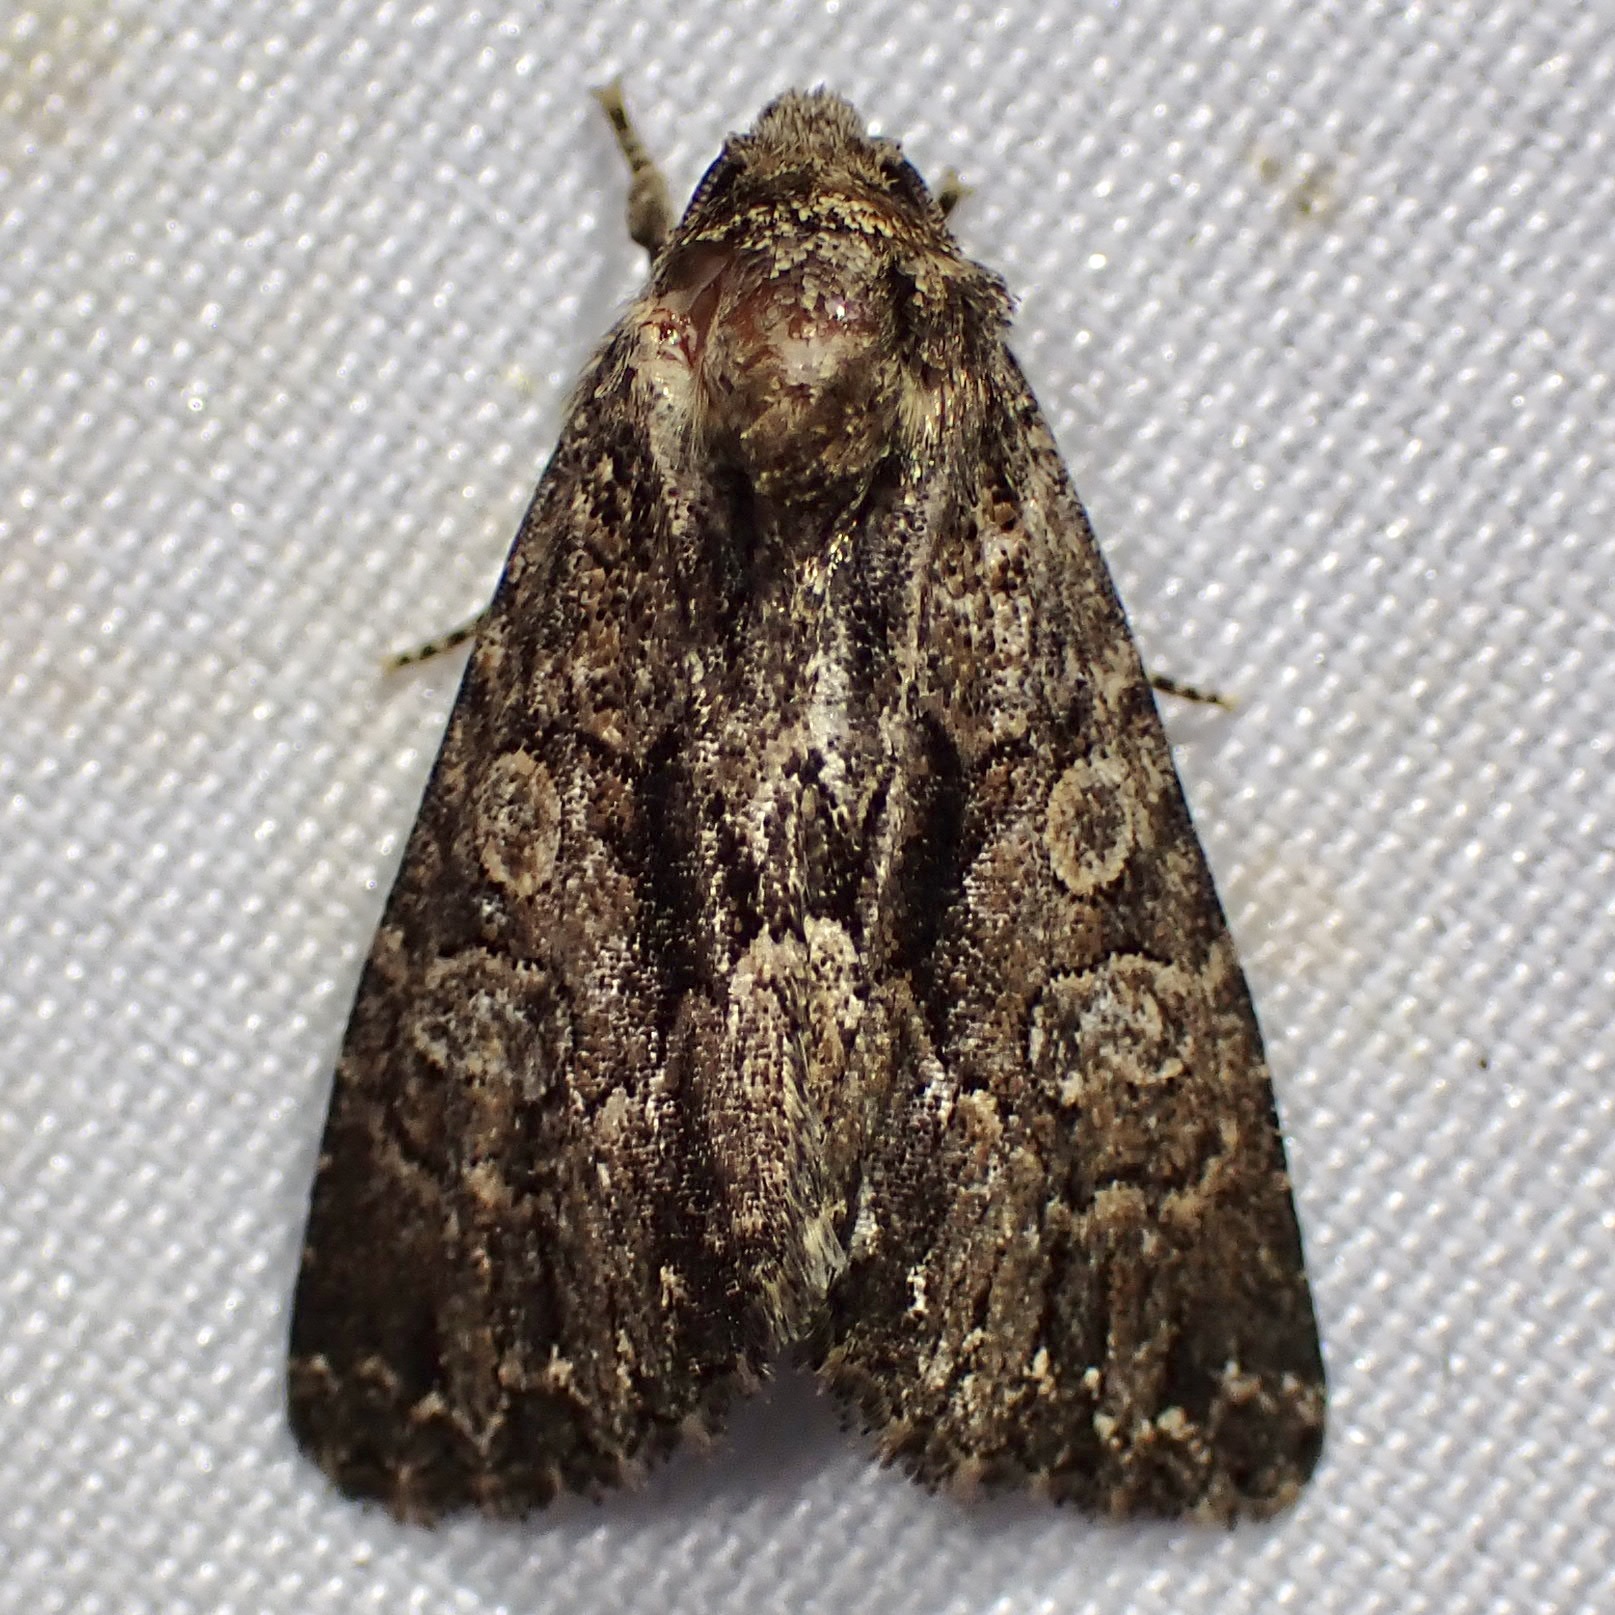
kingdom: Animalia
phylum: Arthropoda
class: Insecta
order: Lepidoptera
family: Noctuidae
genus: Ruacodes
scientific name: Ruacodes tela
